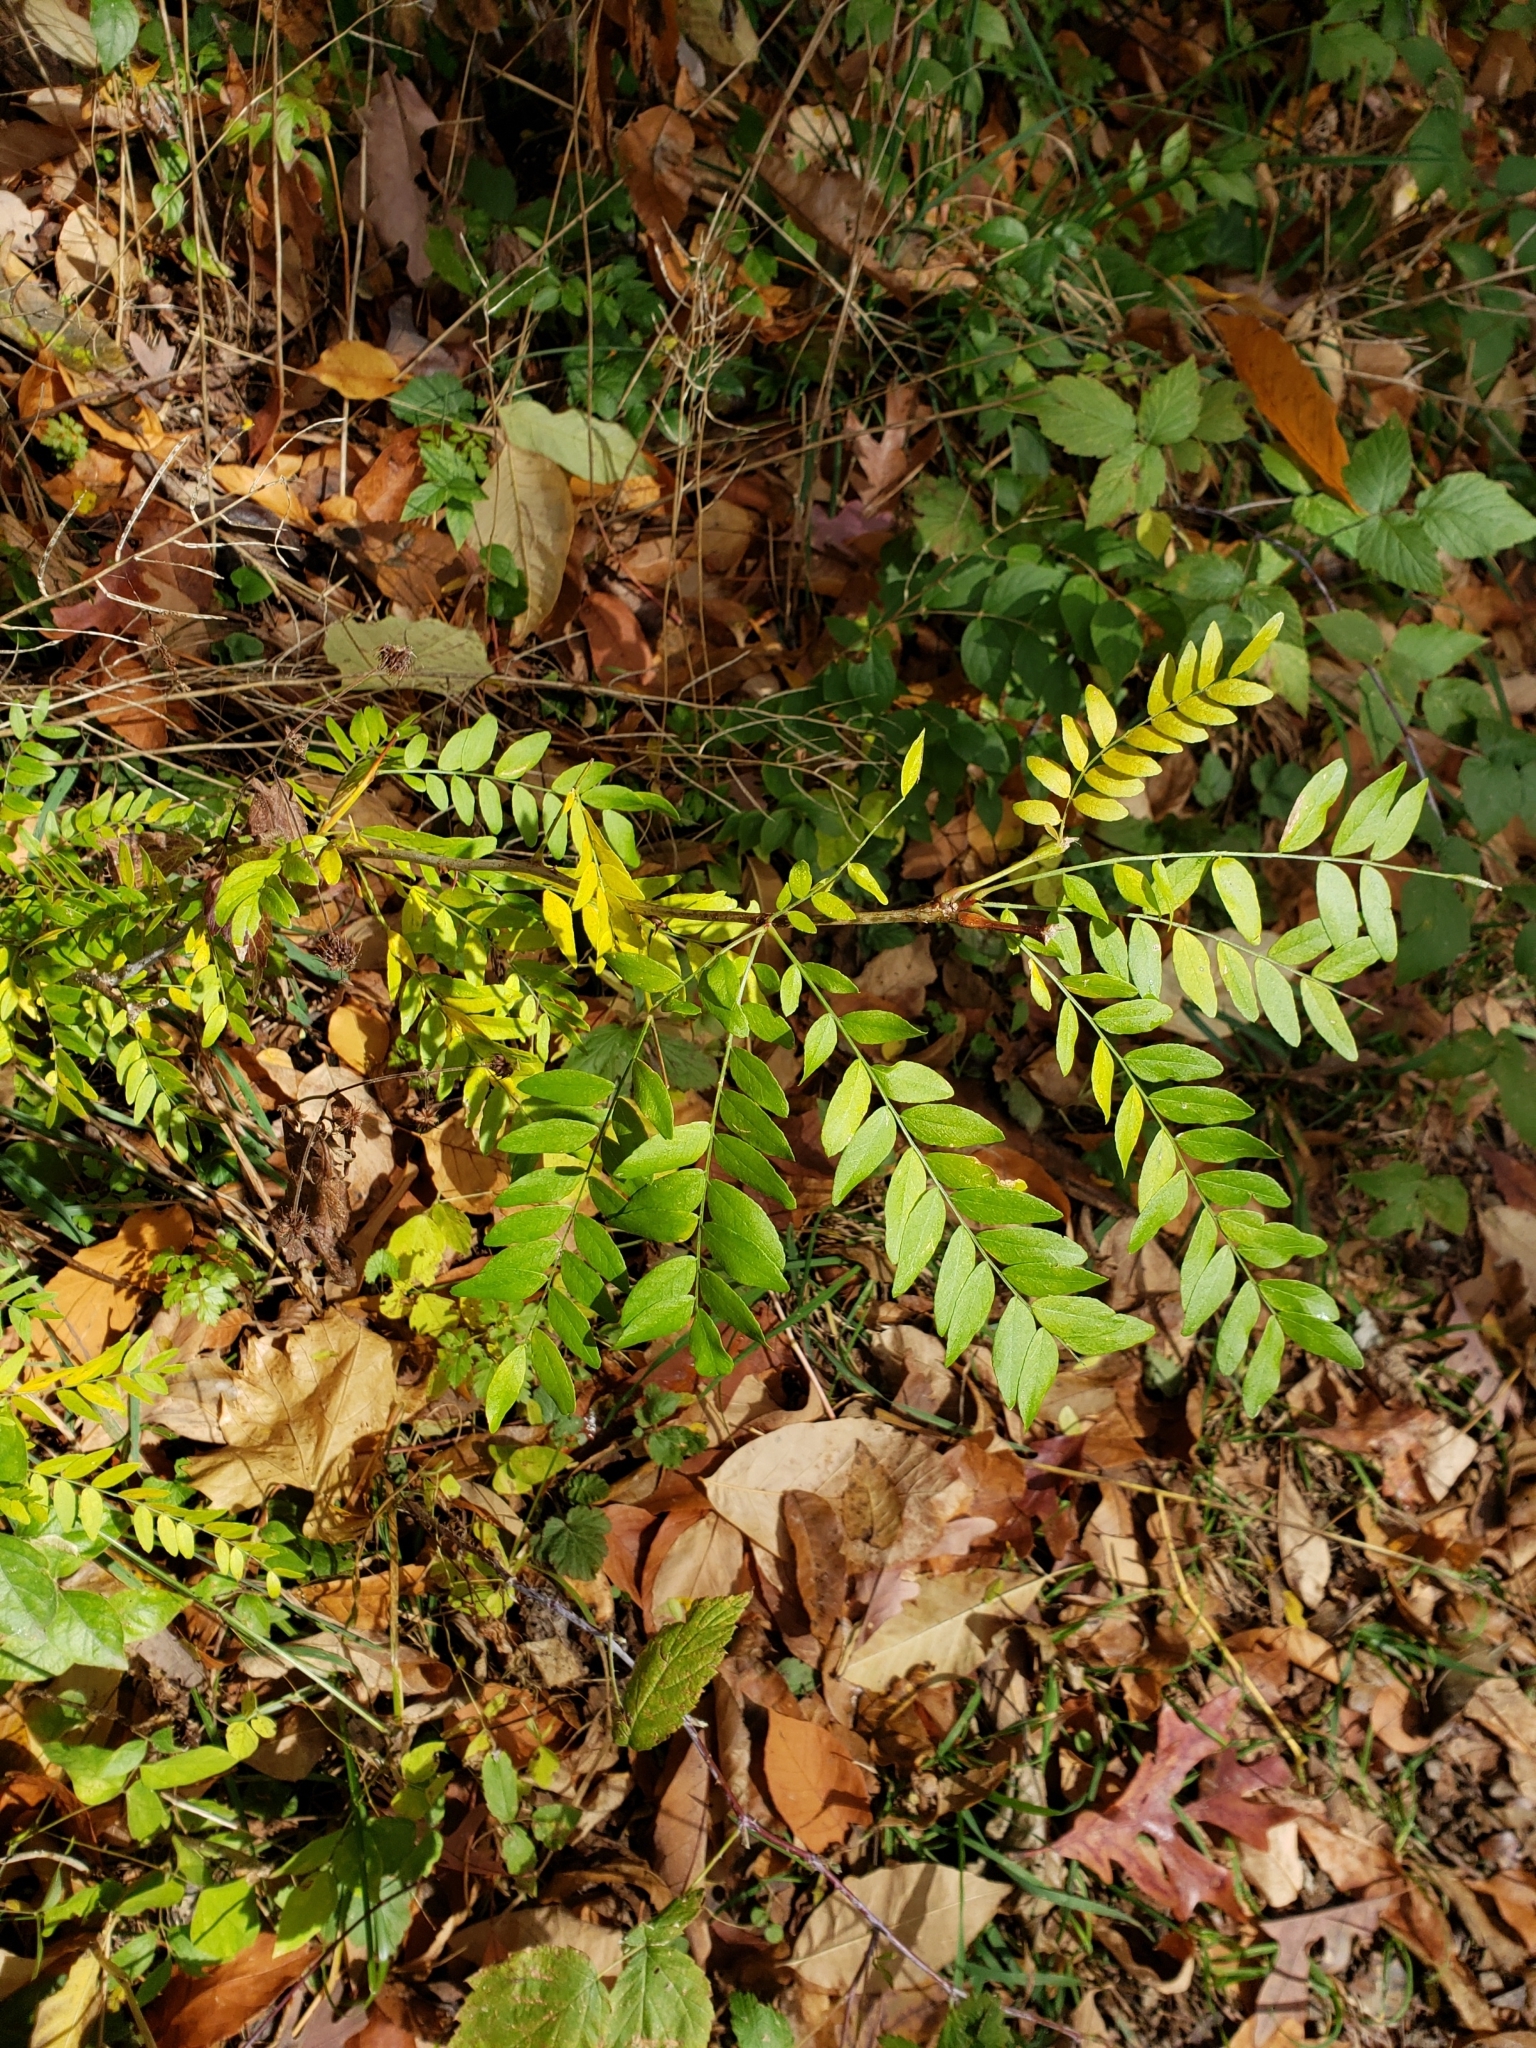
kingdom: Plantae
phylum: Tracheophyta
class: Magnoliopsida
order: Fabales
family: Fabaceae
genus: Gleditsia
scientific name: Gleditsia triacanthos
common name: Common honeylocust
